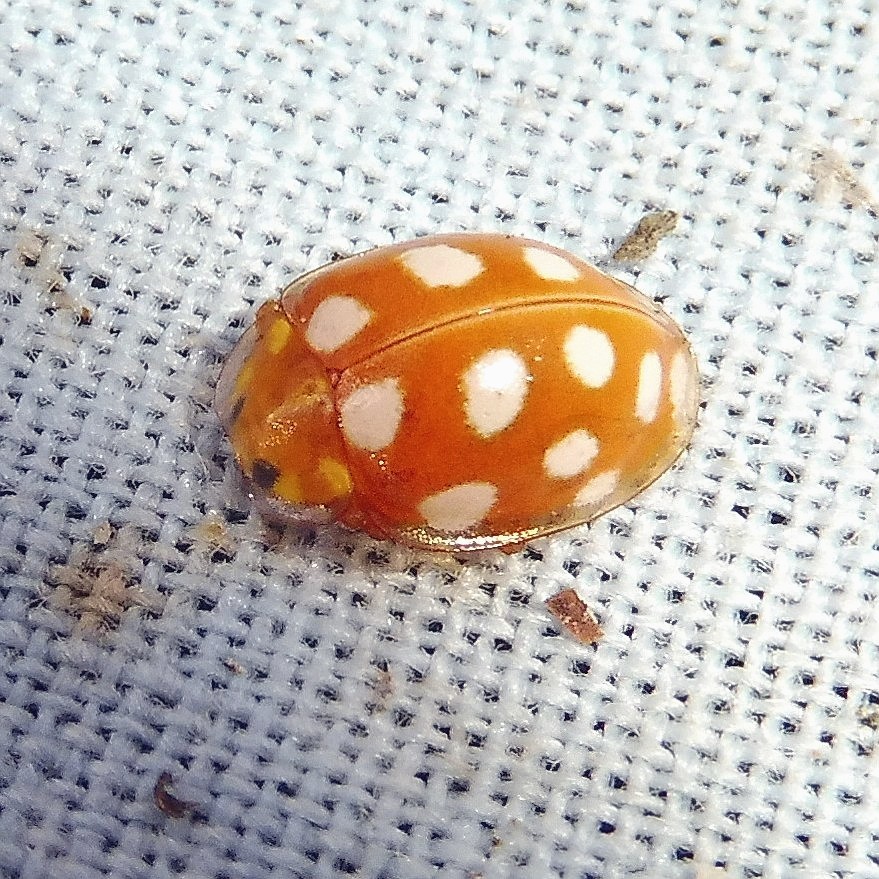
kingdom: Animalia
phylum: Arthropoda
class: Insecta
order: Coleoptera
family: Coccinellidae
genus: Halyzia
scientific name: Halyzia sedecimguttata
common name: Orange ladybird
